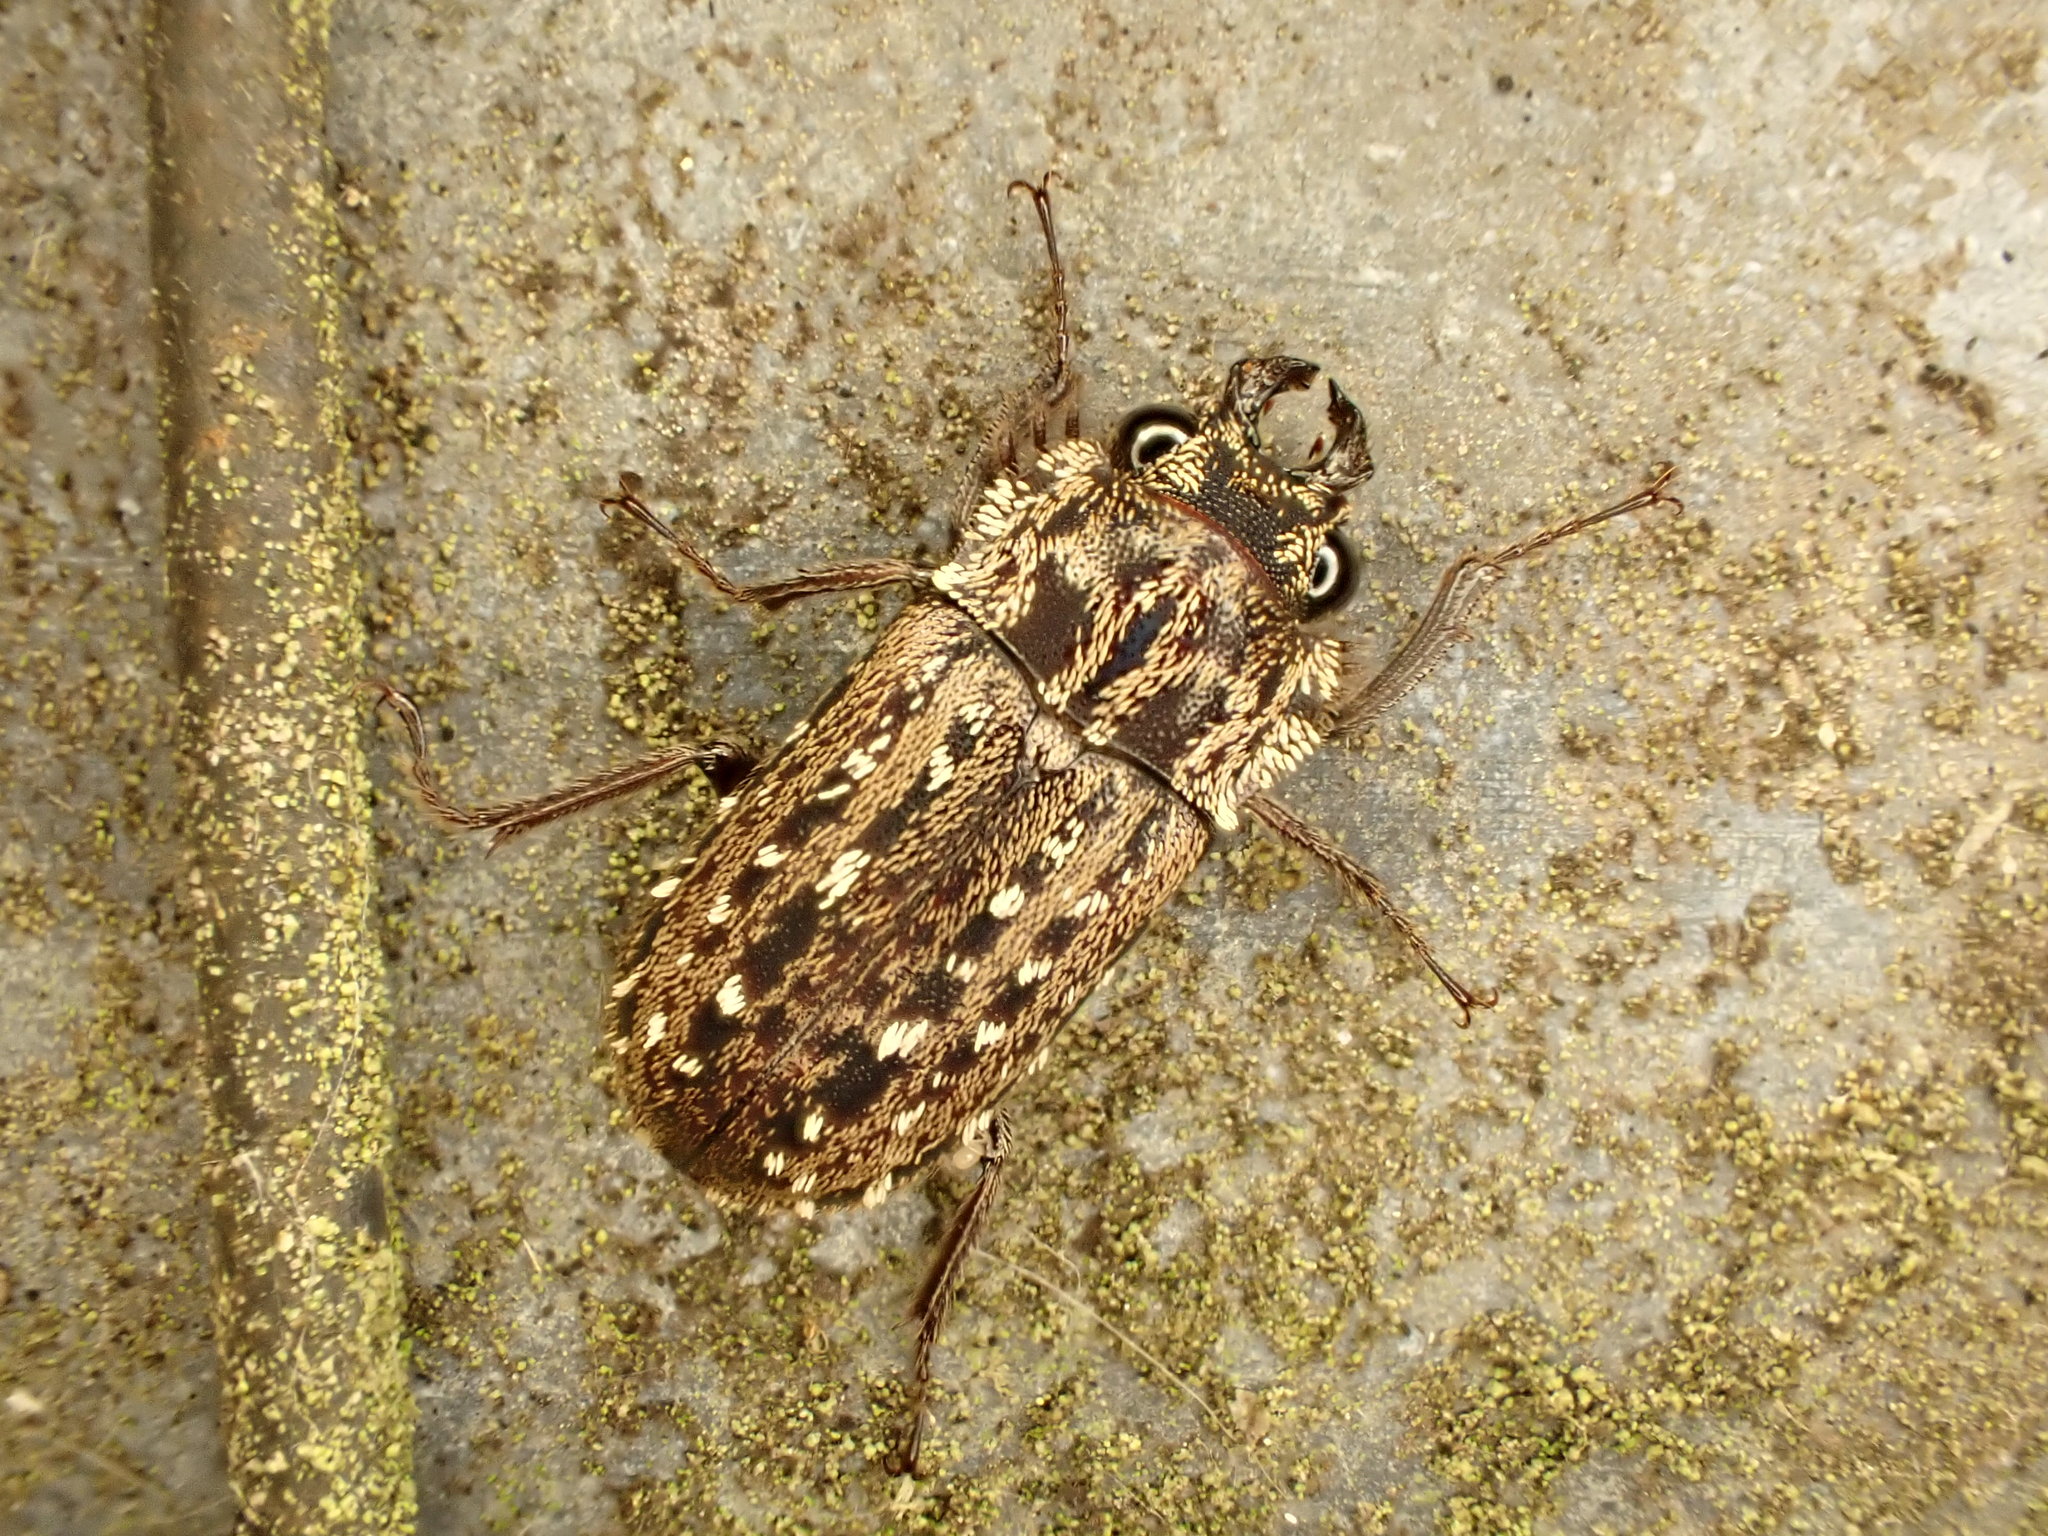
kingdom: Animalia
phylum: Arthropoda
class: Insecta
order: Coleoptera
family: Lucanidae
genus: Mitophyllus
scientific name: Mitophyllus arcuatus
